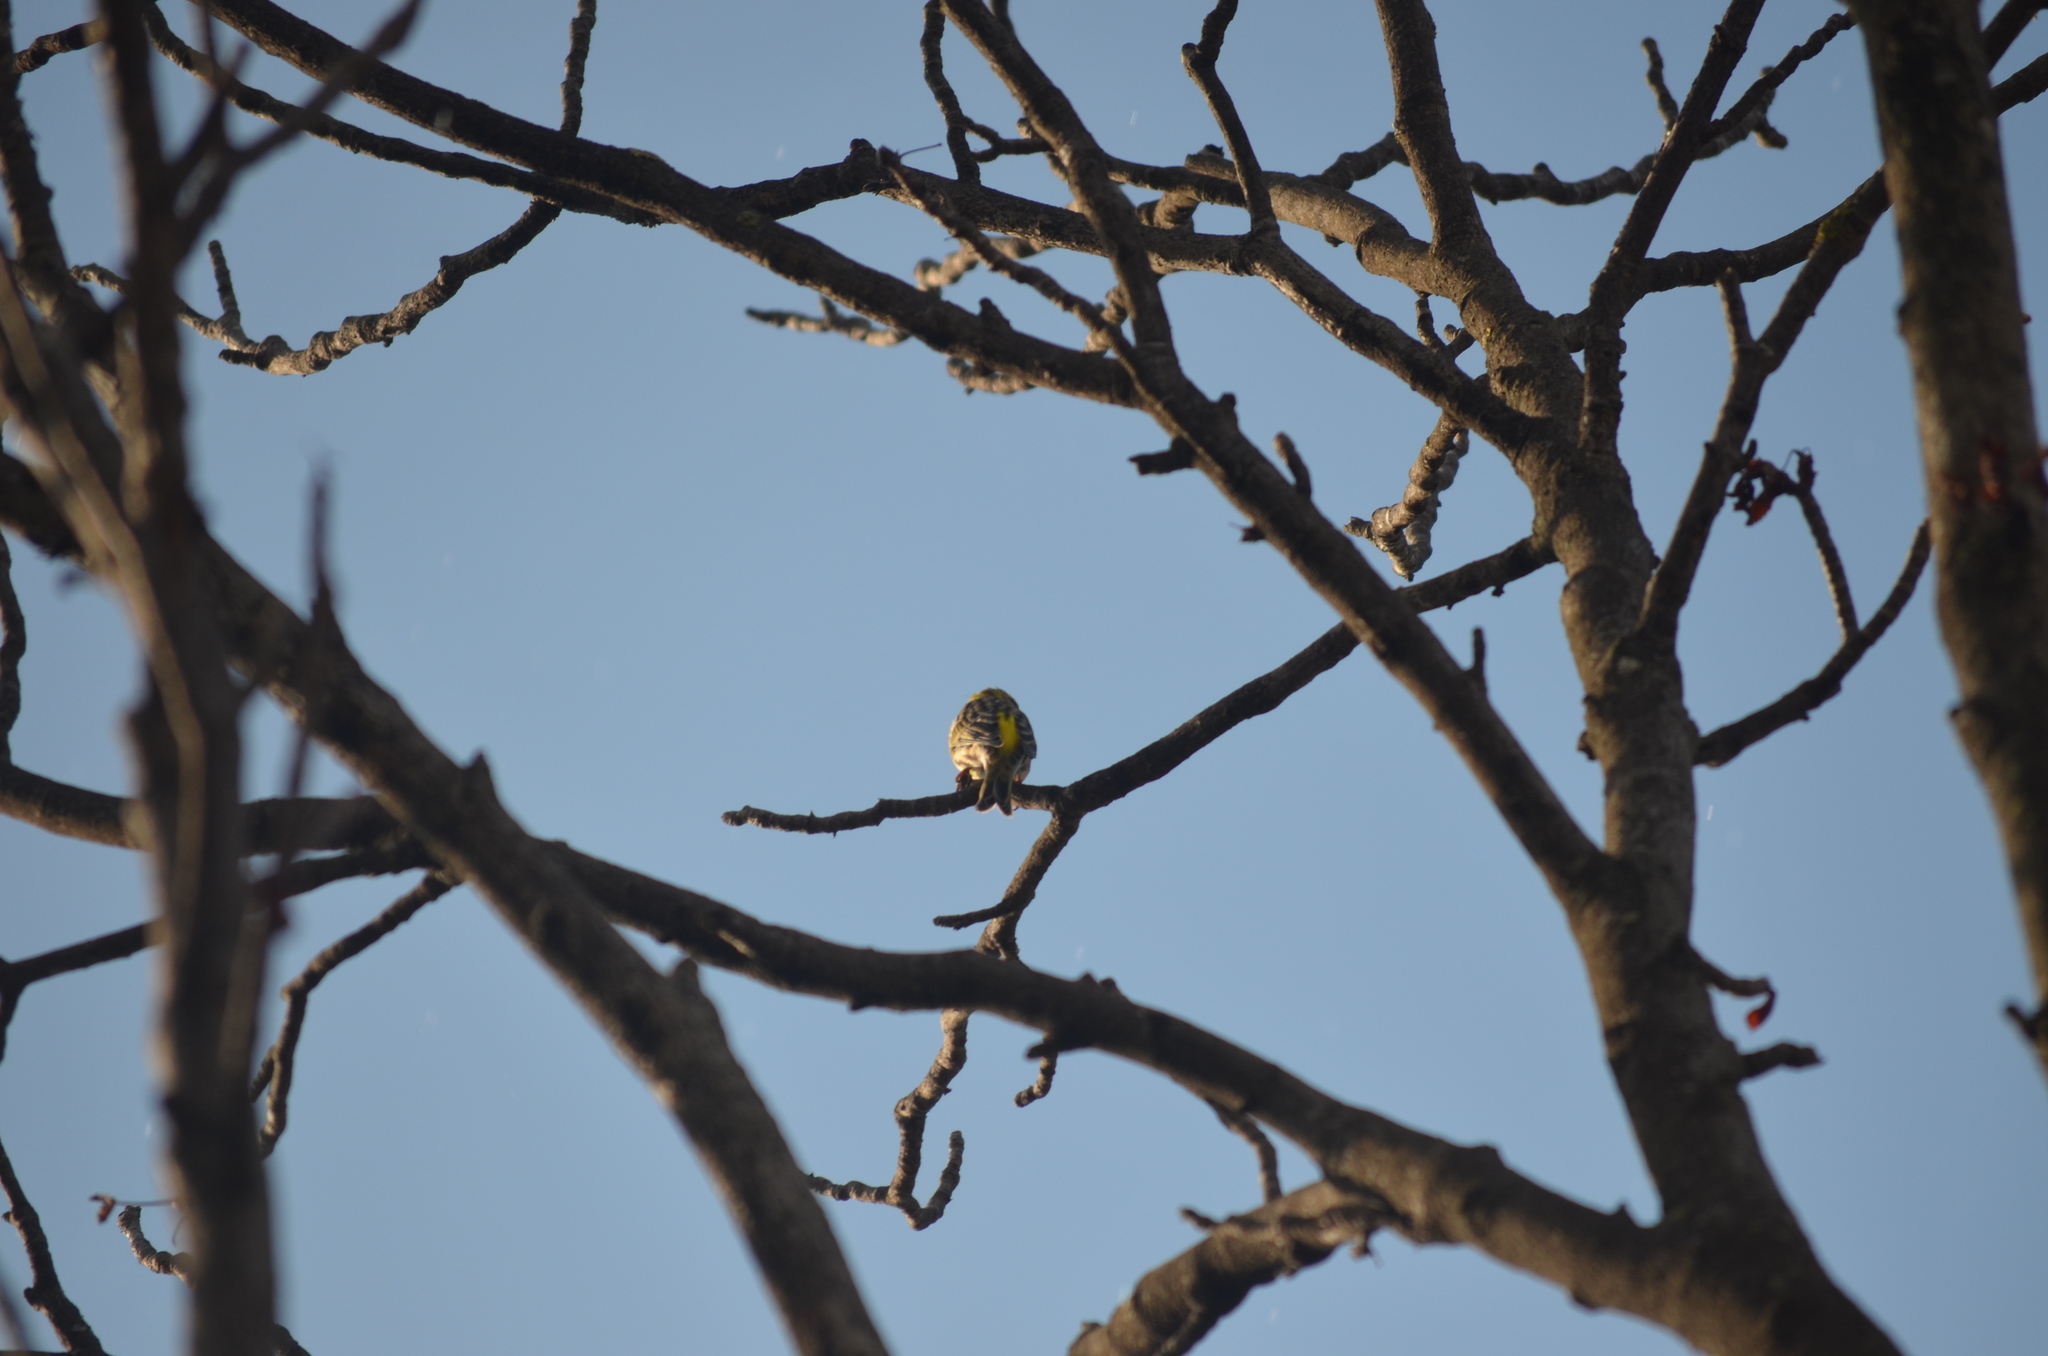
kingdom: Animalia
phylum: Chordata
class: Aves
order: Passeriformes
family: Fringillidae
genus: Serinus
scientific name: Serinus serinus
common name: European serin
